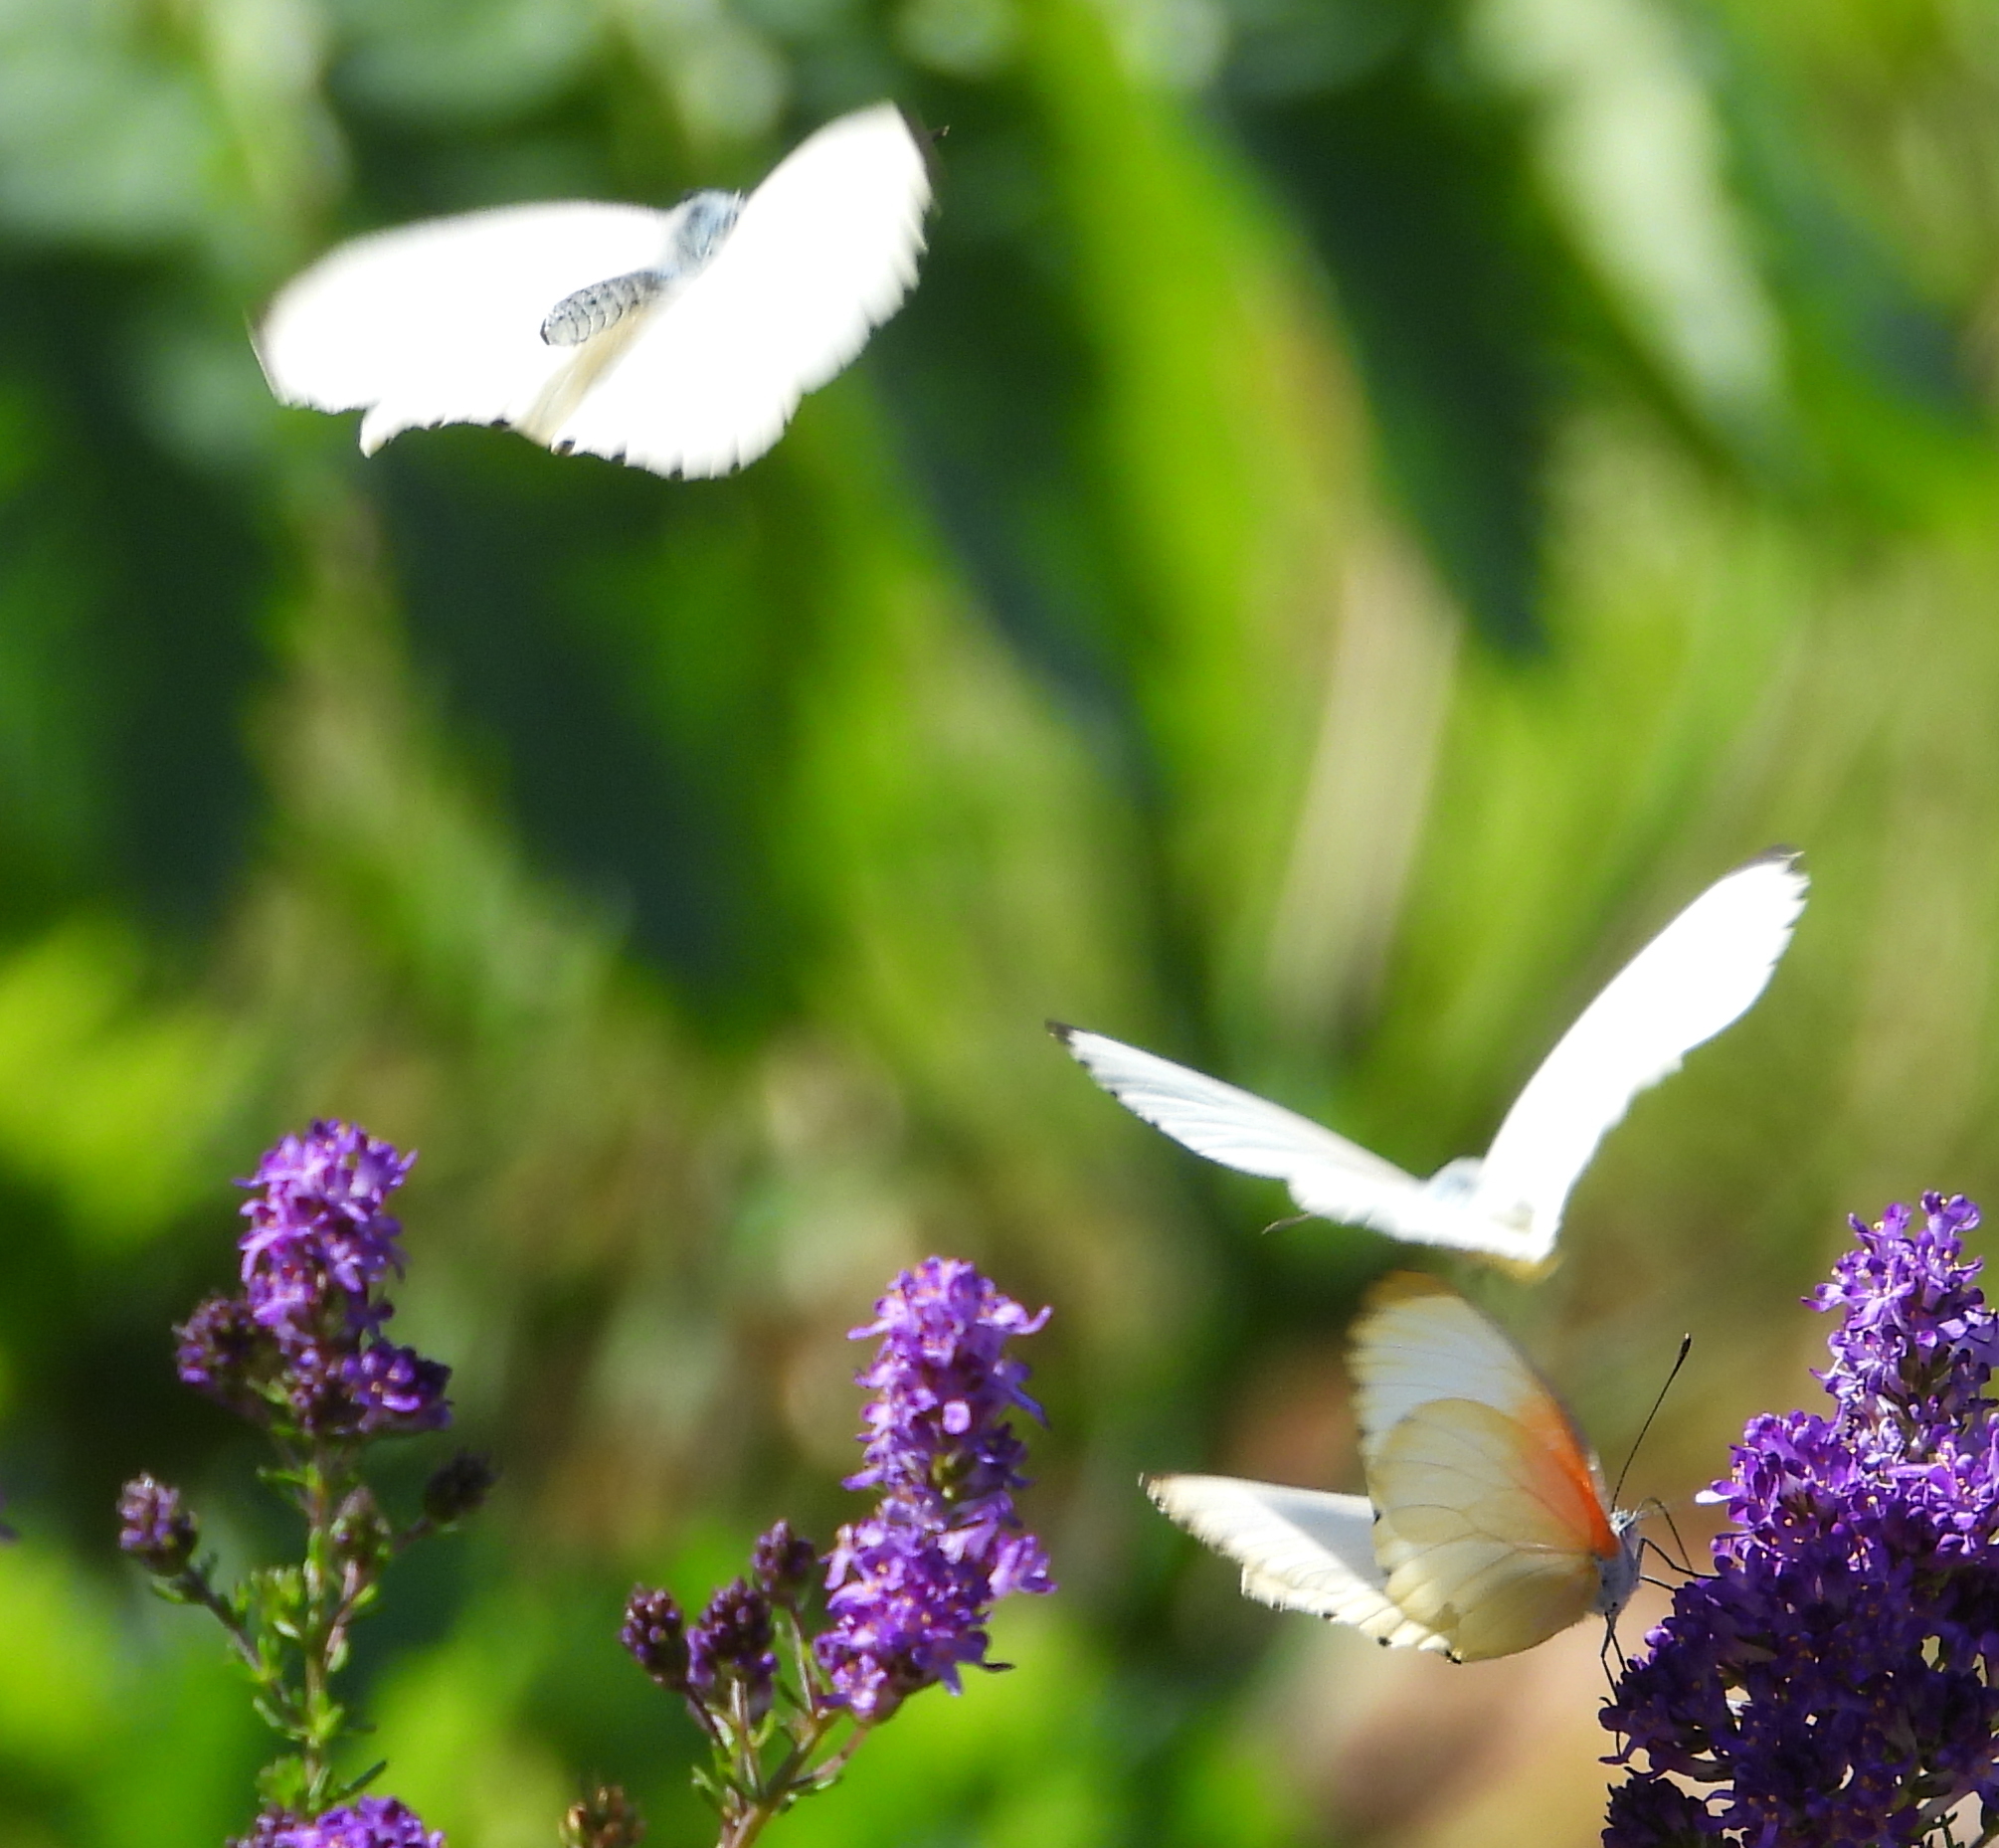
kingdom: Animalia
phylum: Arthropoda
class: Insecta
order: Lepidoptera
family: Pieridae
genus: Mylothris
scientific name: Mylothris agathina
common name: Eastern dotted border
